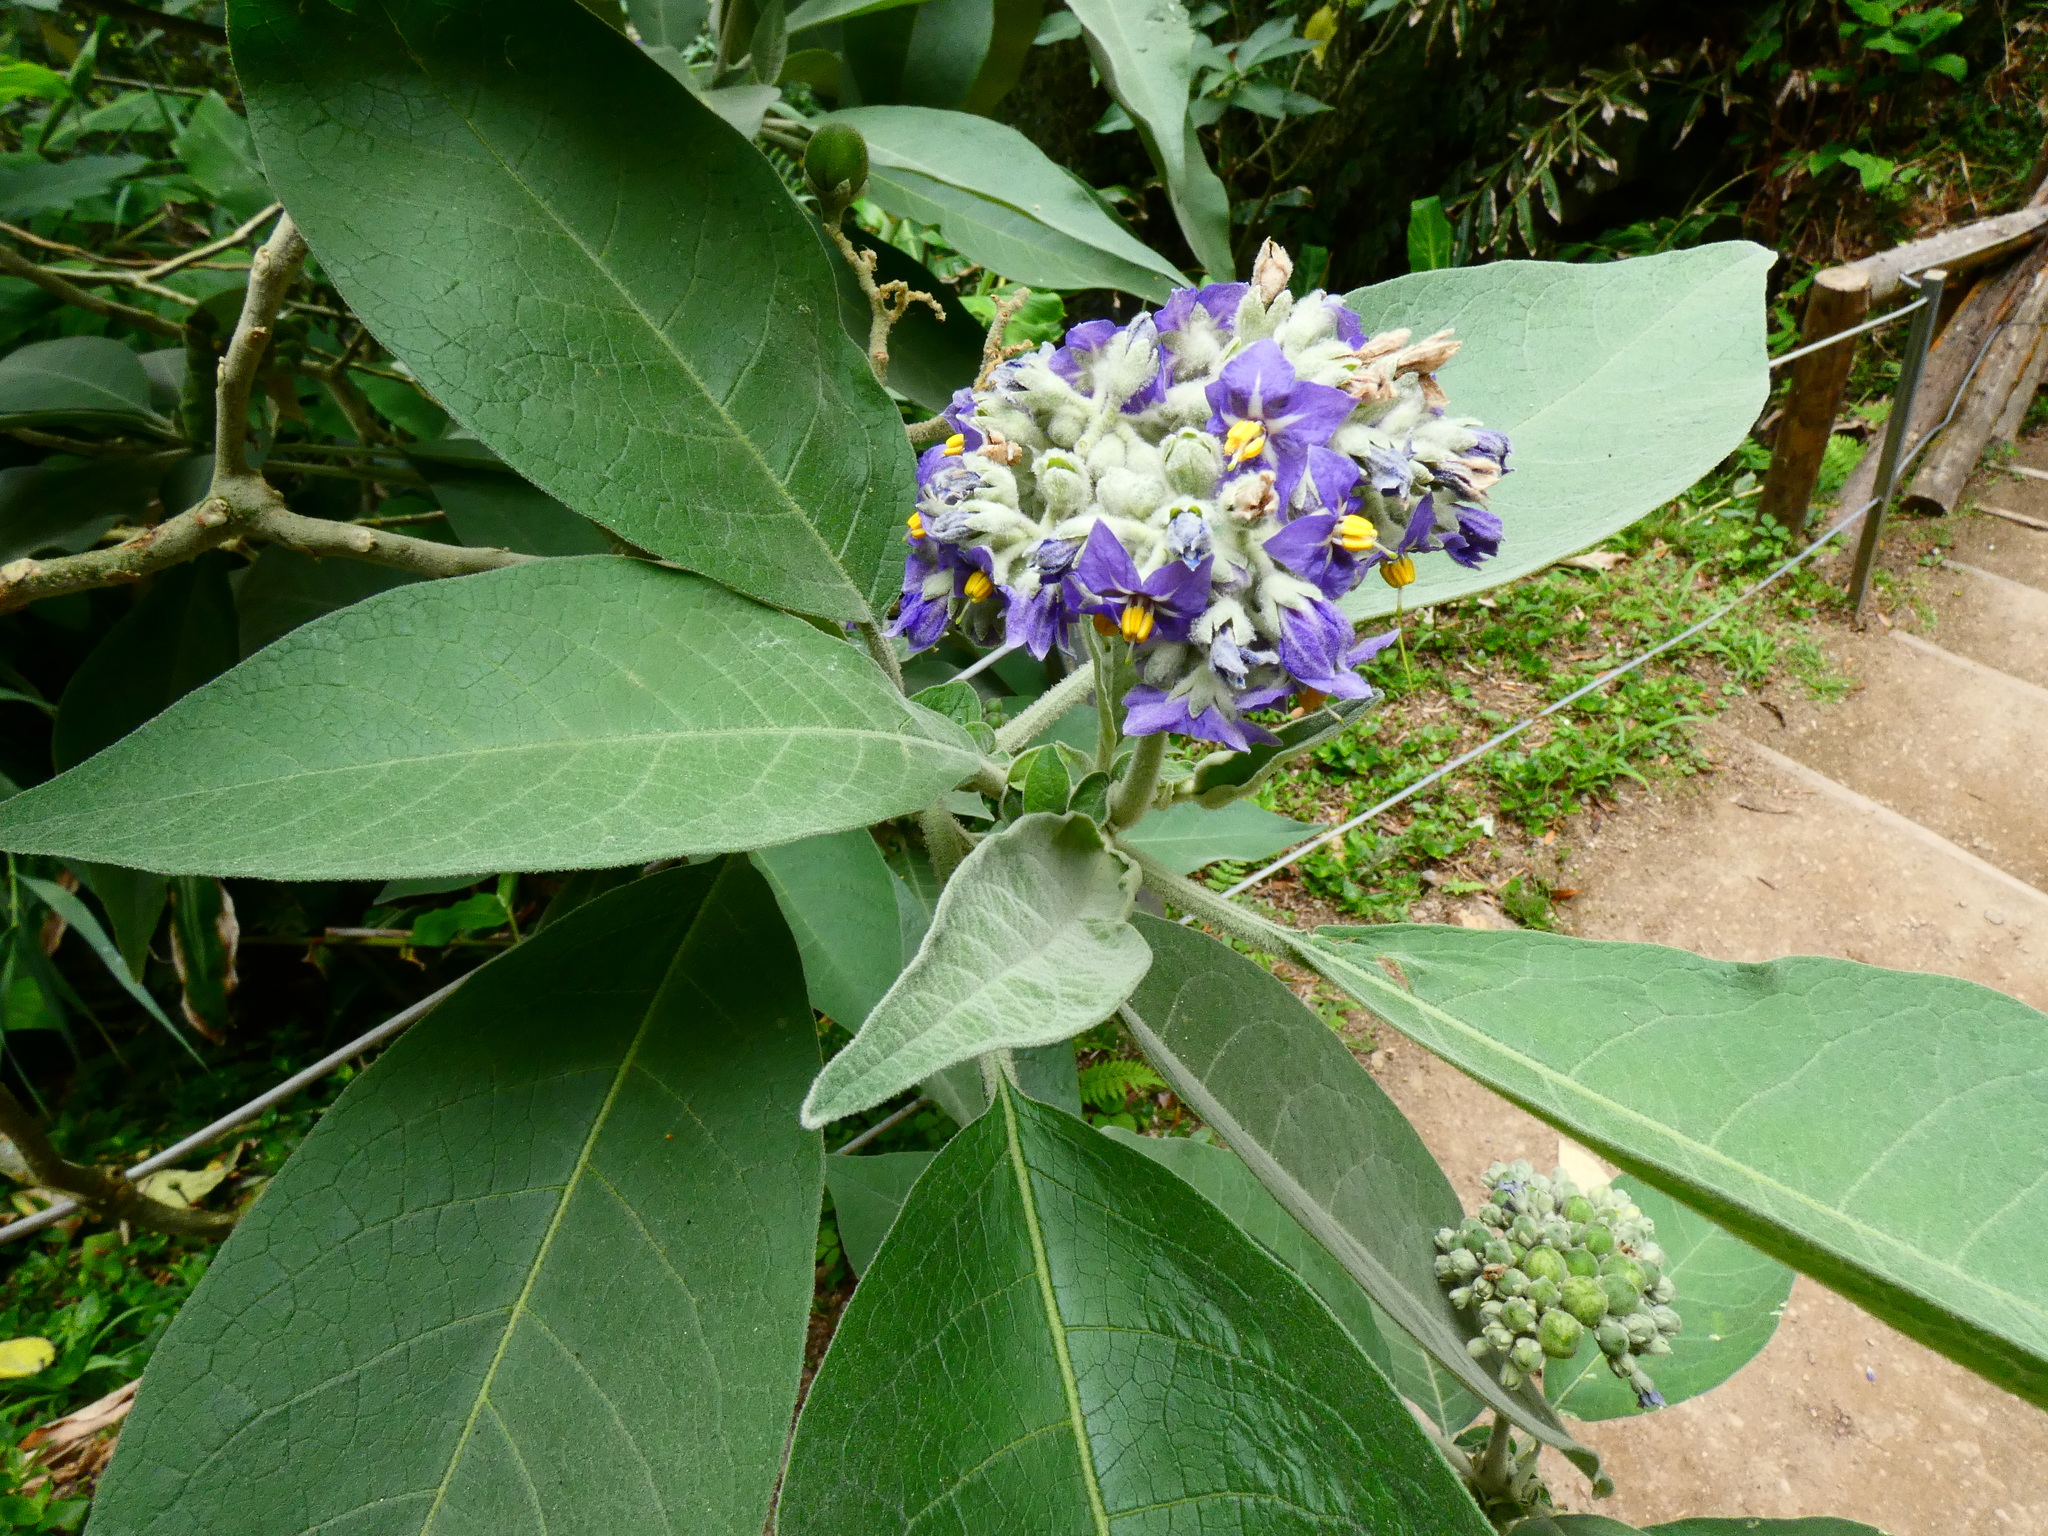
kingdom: Plantae
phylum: Tracheophyta
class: Magnoliopsida
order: Solanales
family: Solanaceae
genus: Solanum
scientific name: Solanum mauritianum
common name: Earleaf nightshade
